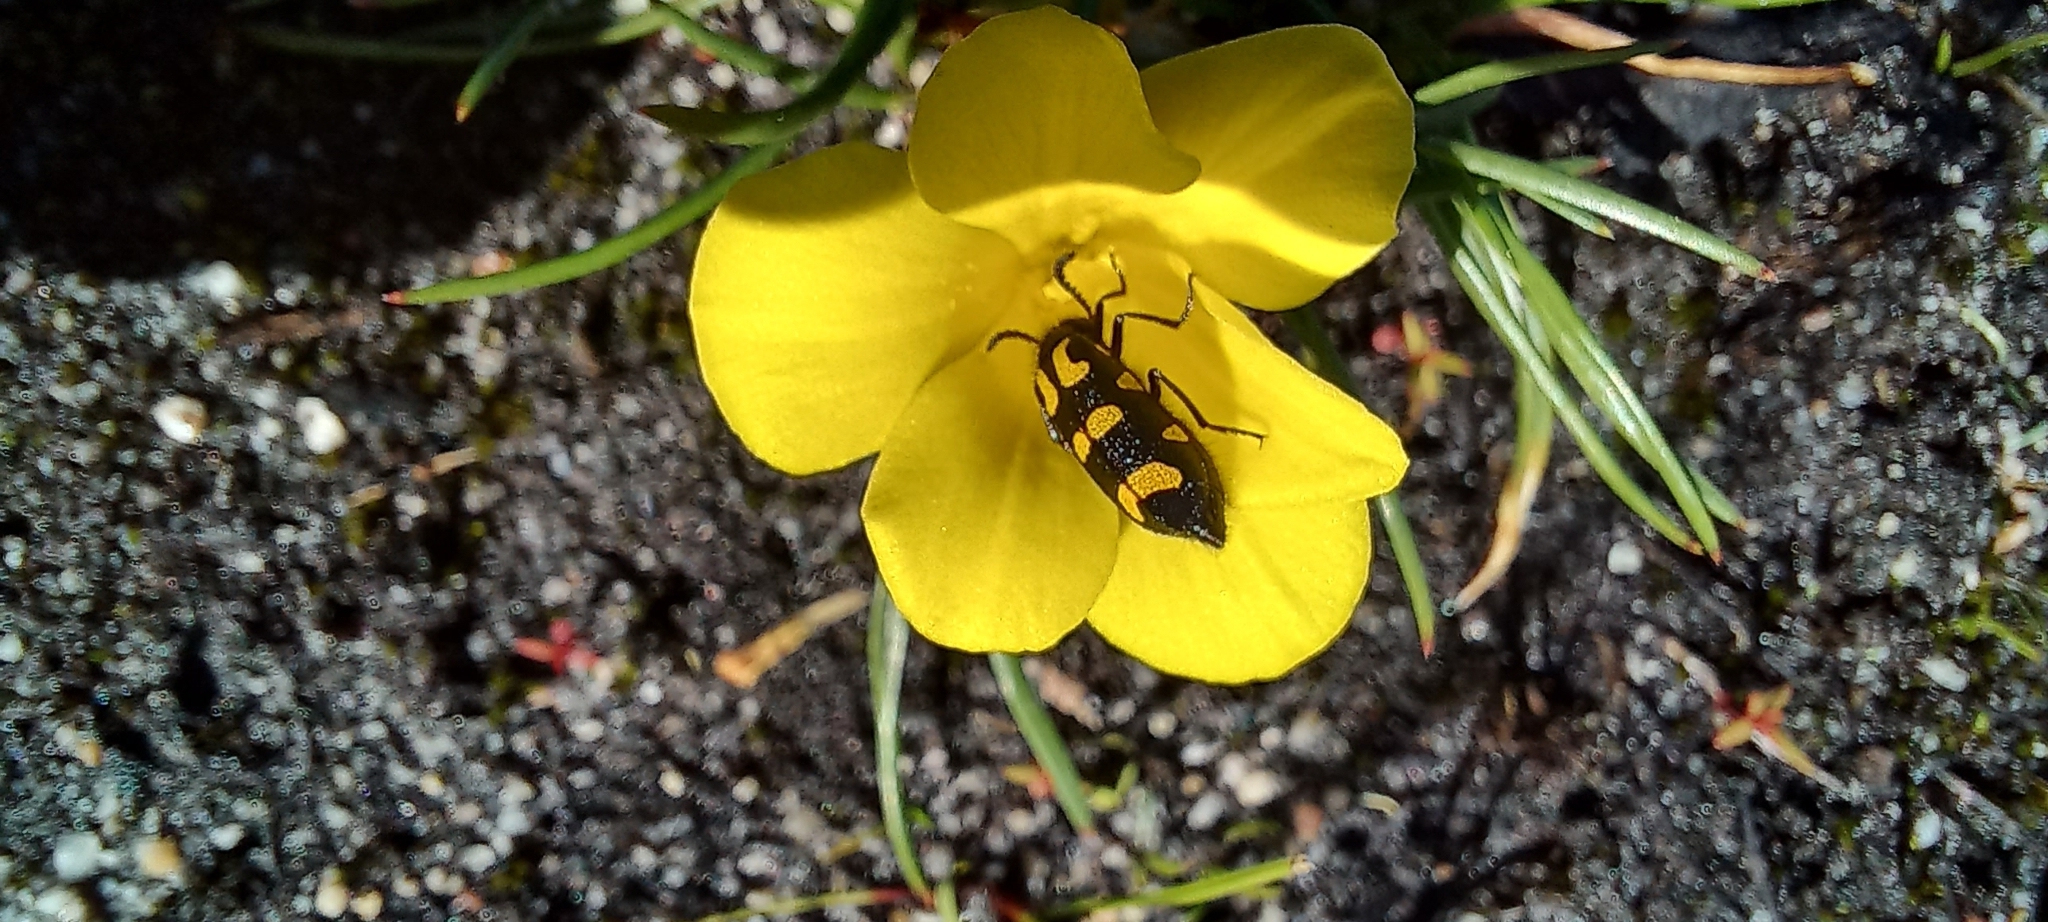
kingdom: Plantae
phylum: Tracheophyta
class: Liliopsida
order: Asparagales
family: Iridaceae
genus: Moraea
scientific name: Moraea fugacissima
